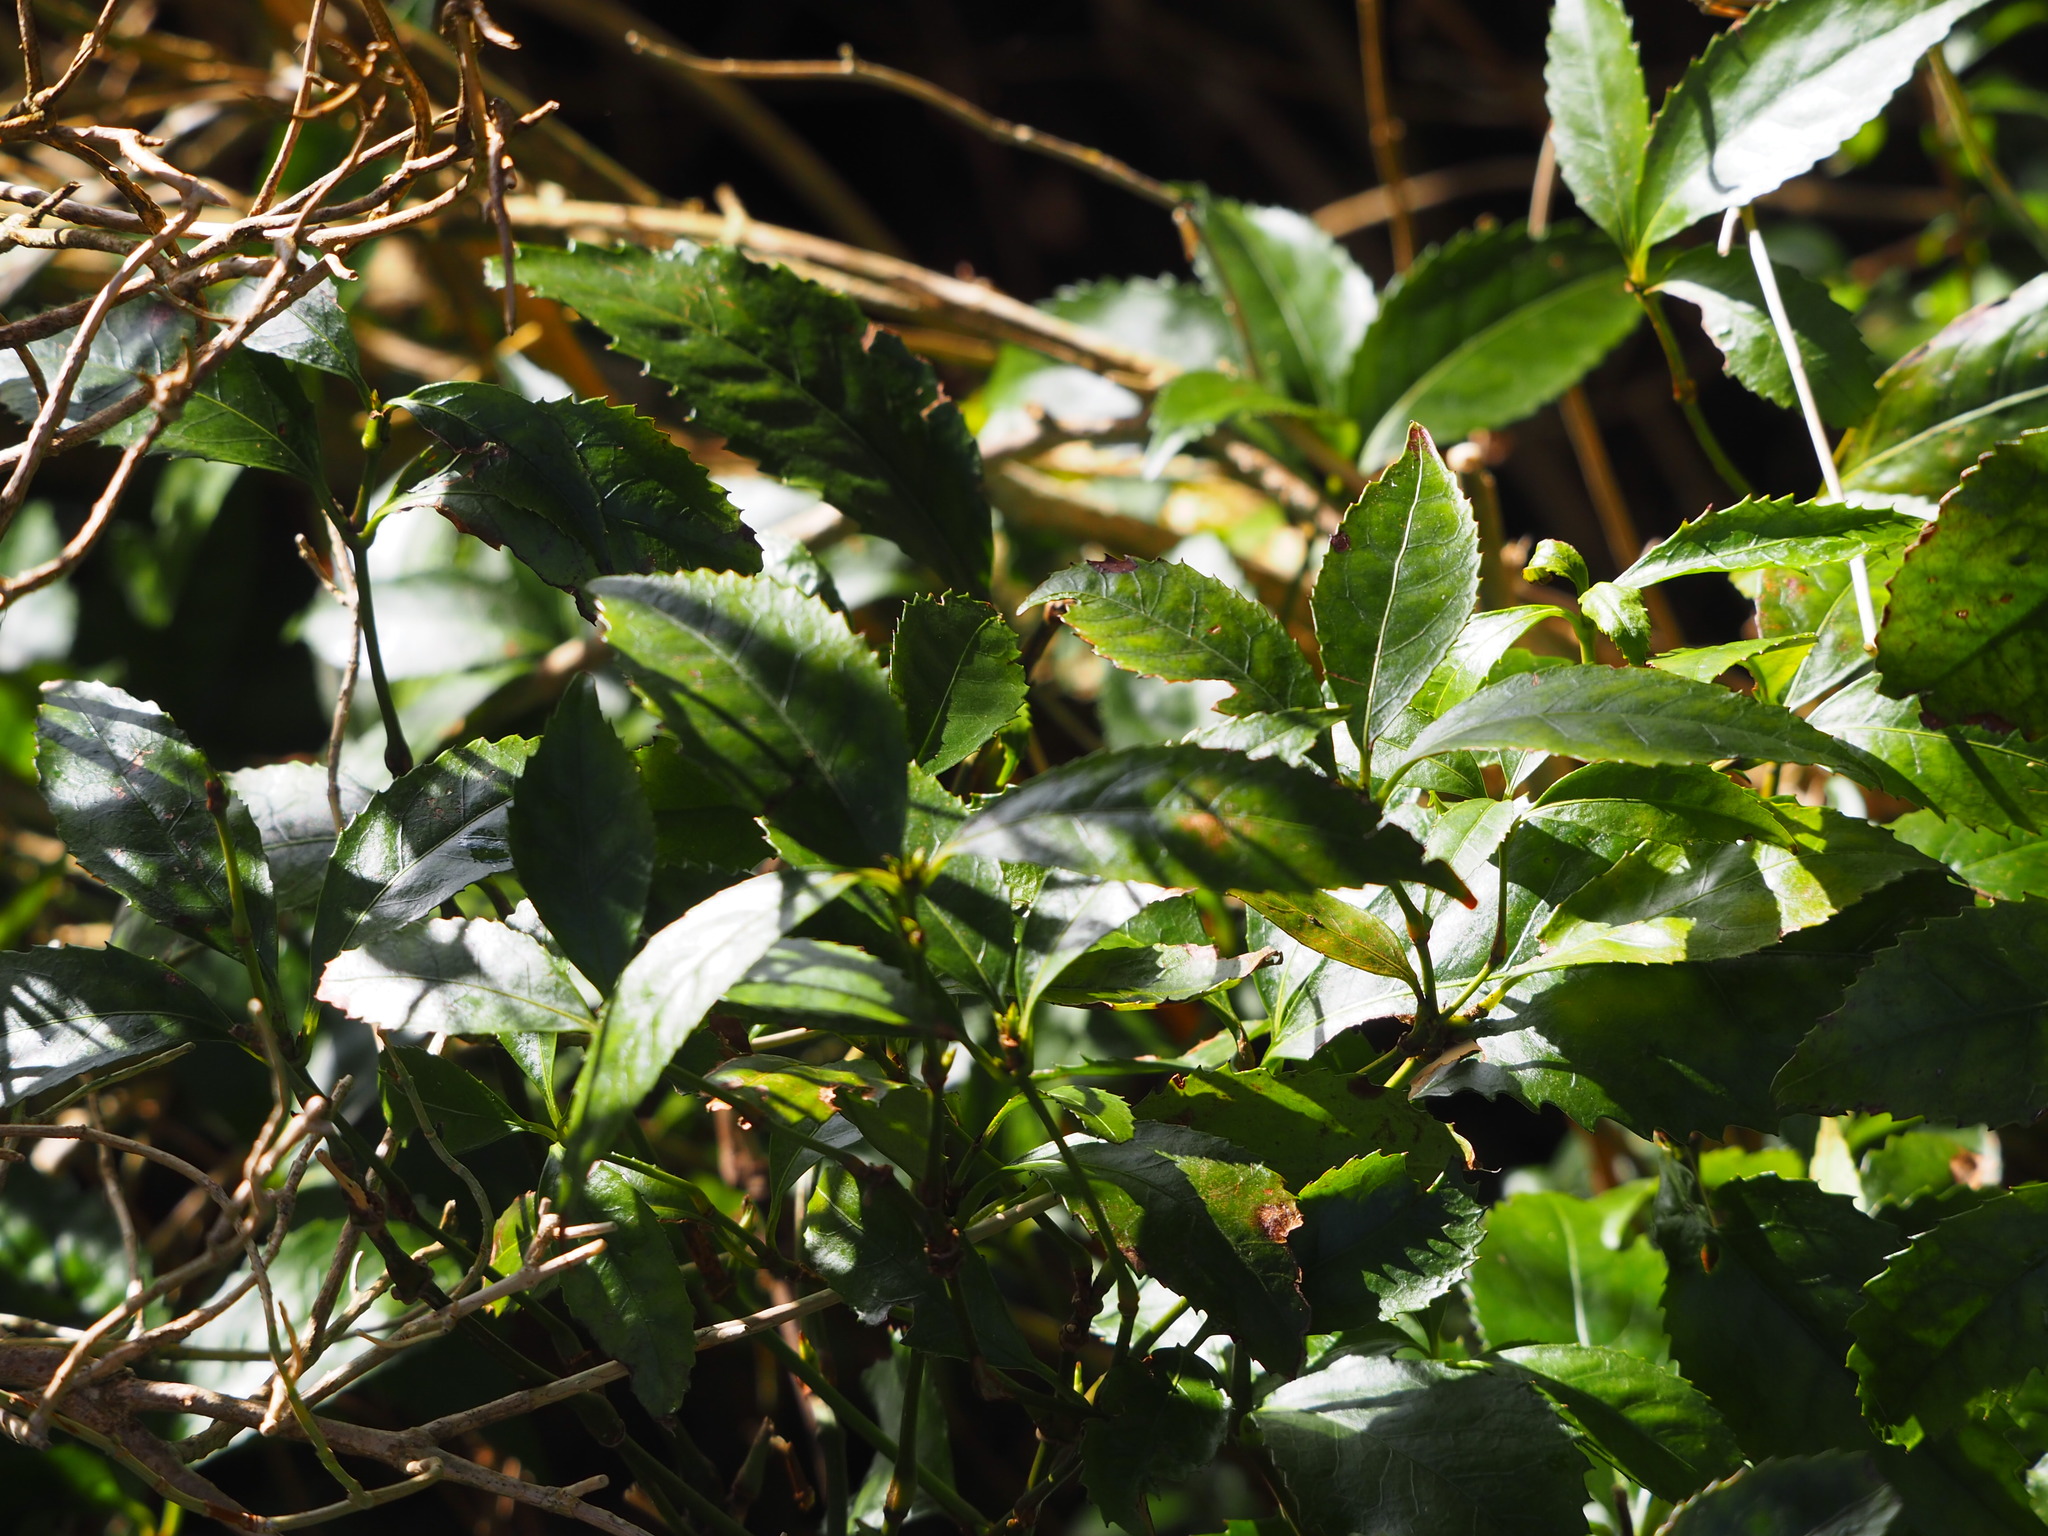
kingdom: Plantae
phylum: Tracheophyta
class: Magnoliopsida
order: Chloranthales
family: Chloranthaceae
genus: Sarcandra
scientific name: Sarcandra glabra
